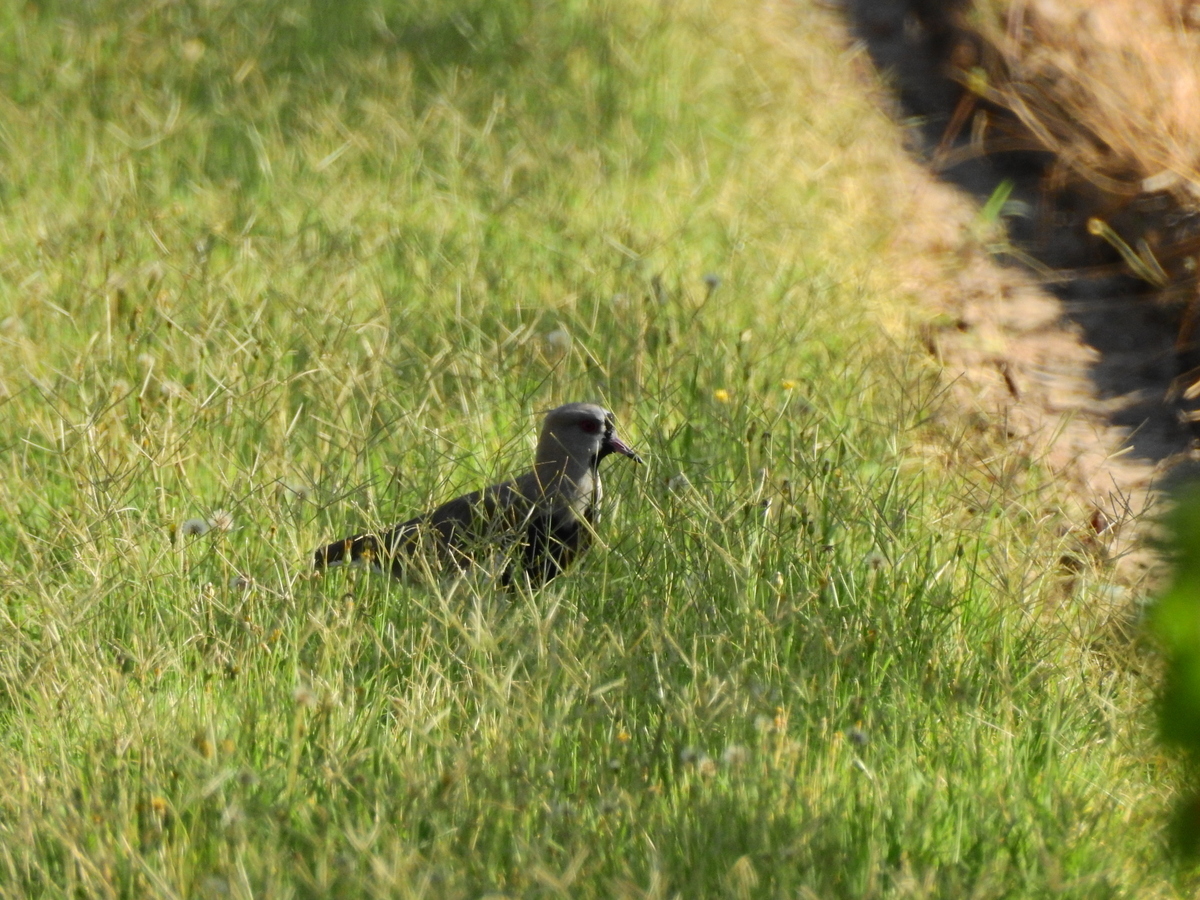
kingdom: Animalia
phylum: Chordata
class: Aves
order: Charadriiformes
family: Charadriidae
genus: Vanellus
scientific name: Vanellus chilensis
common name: Southern lapwing
